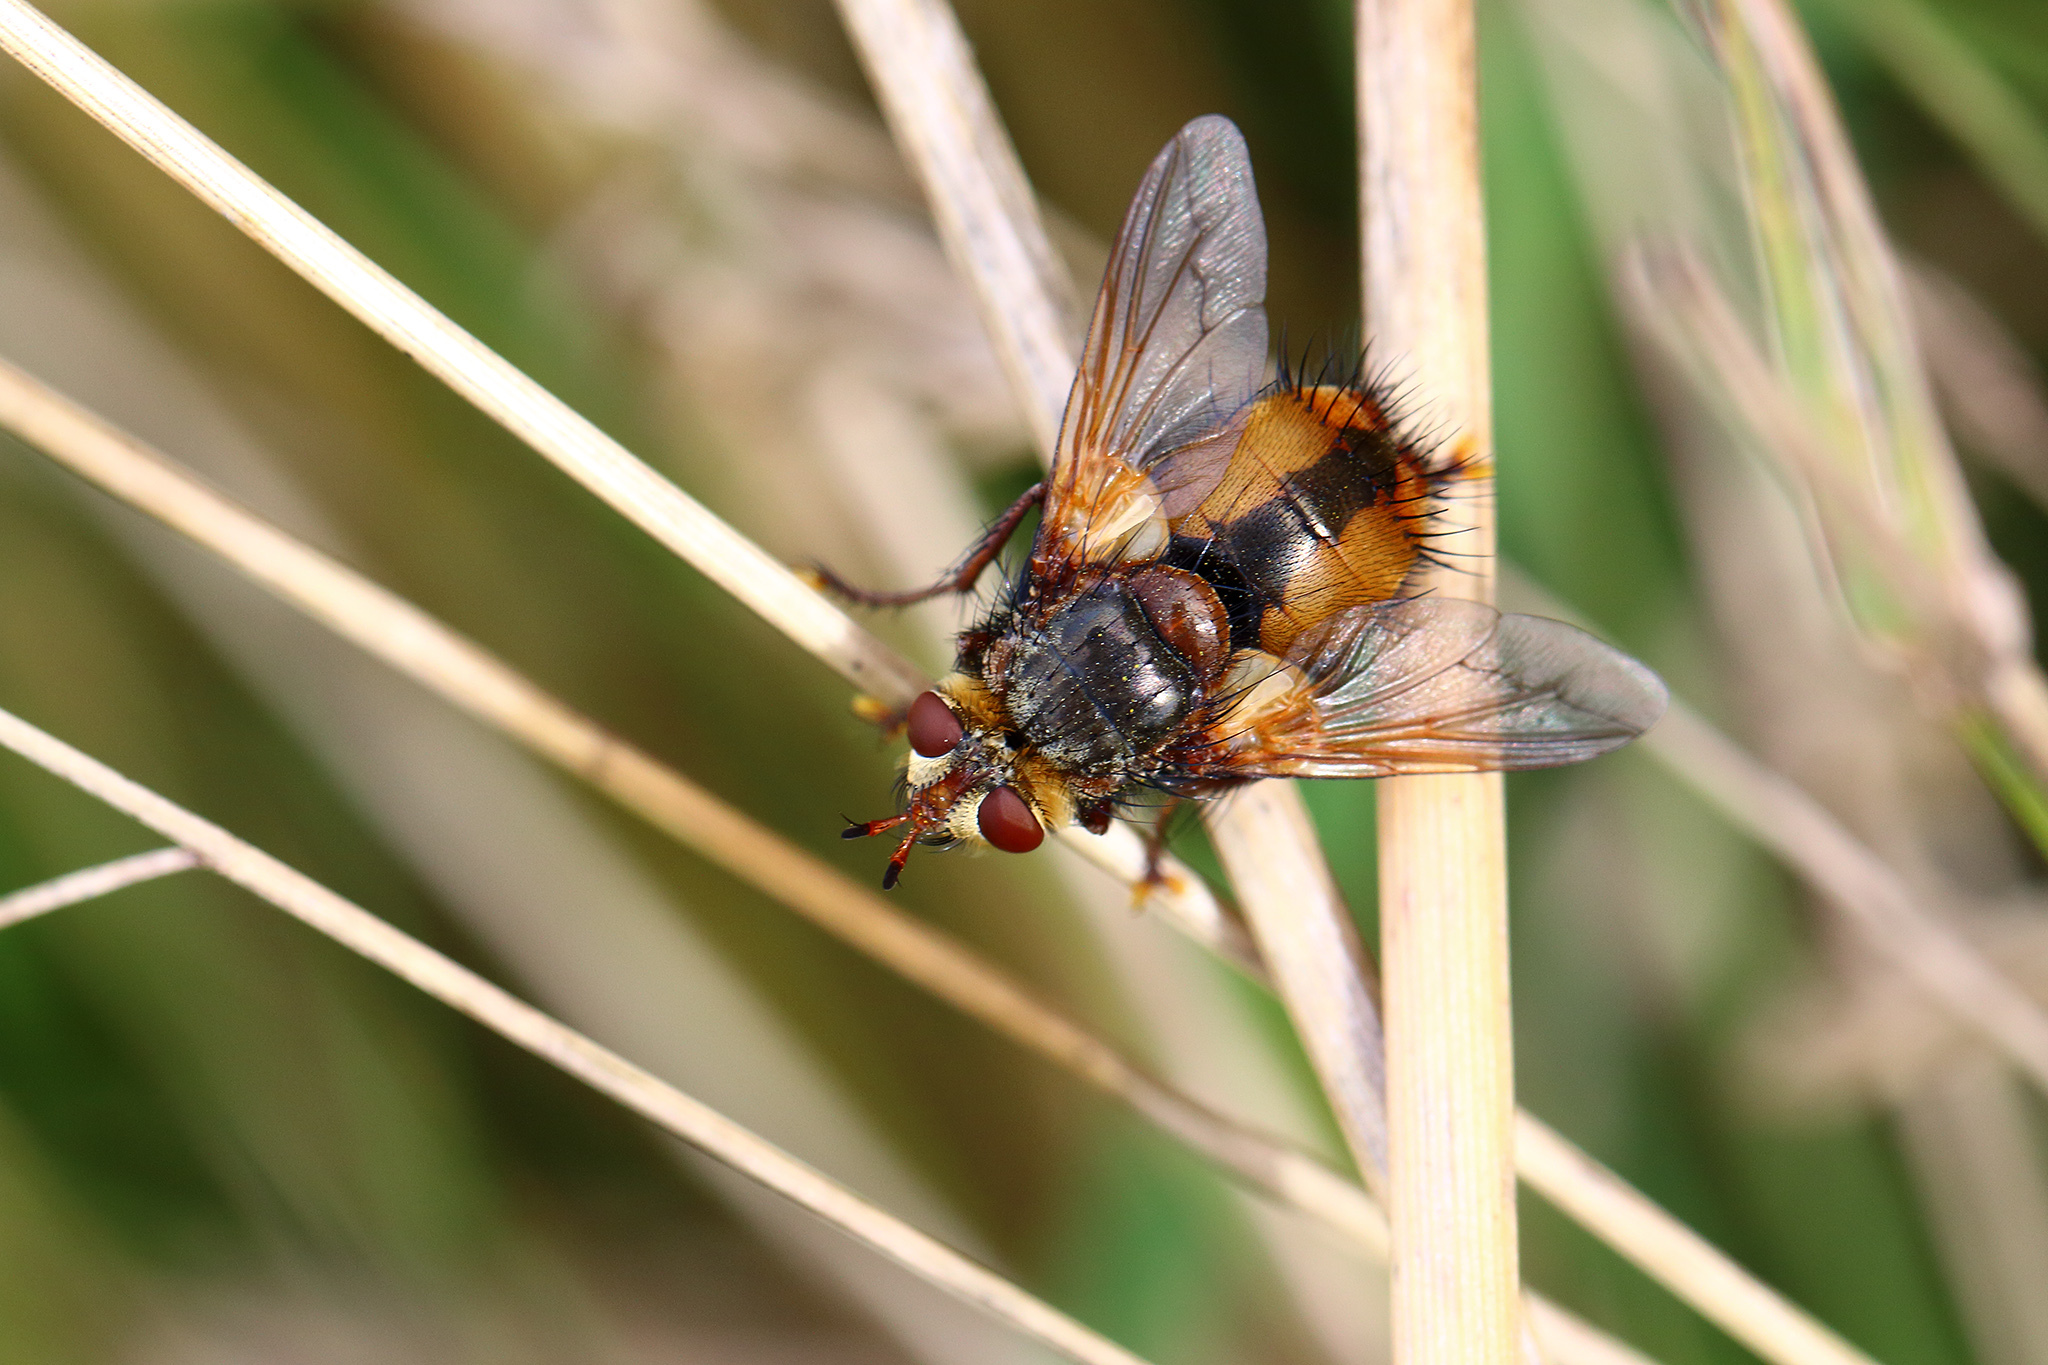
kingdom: Animalia
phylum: Arthropoda
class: Insecta
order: Diptera
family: Tachinidae
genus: Tachina
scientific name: Tachina fera
